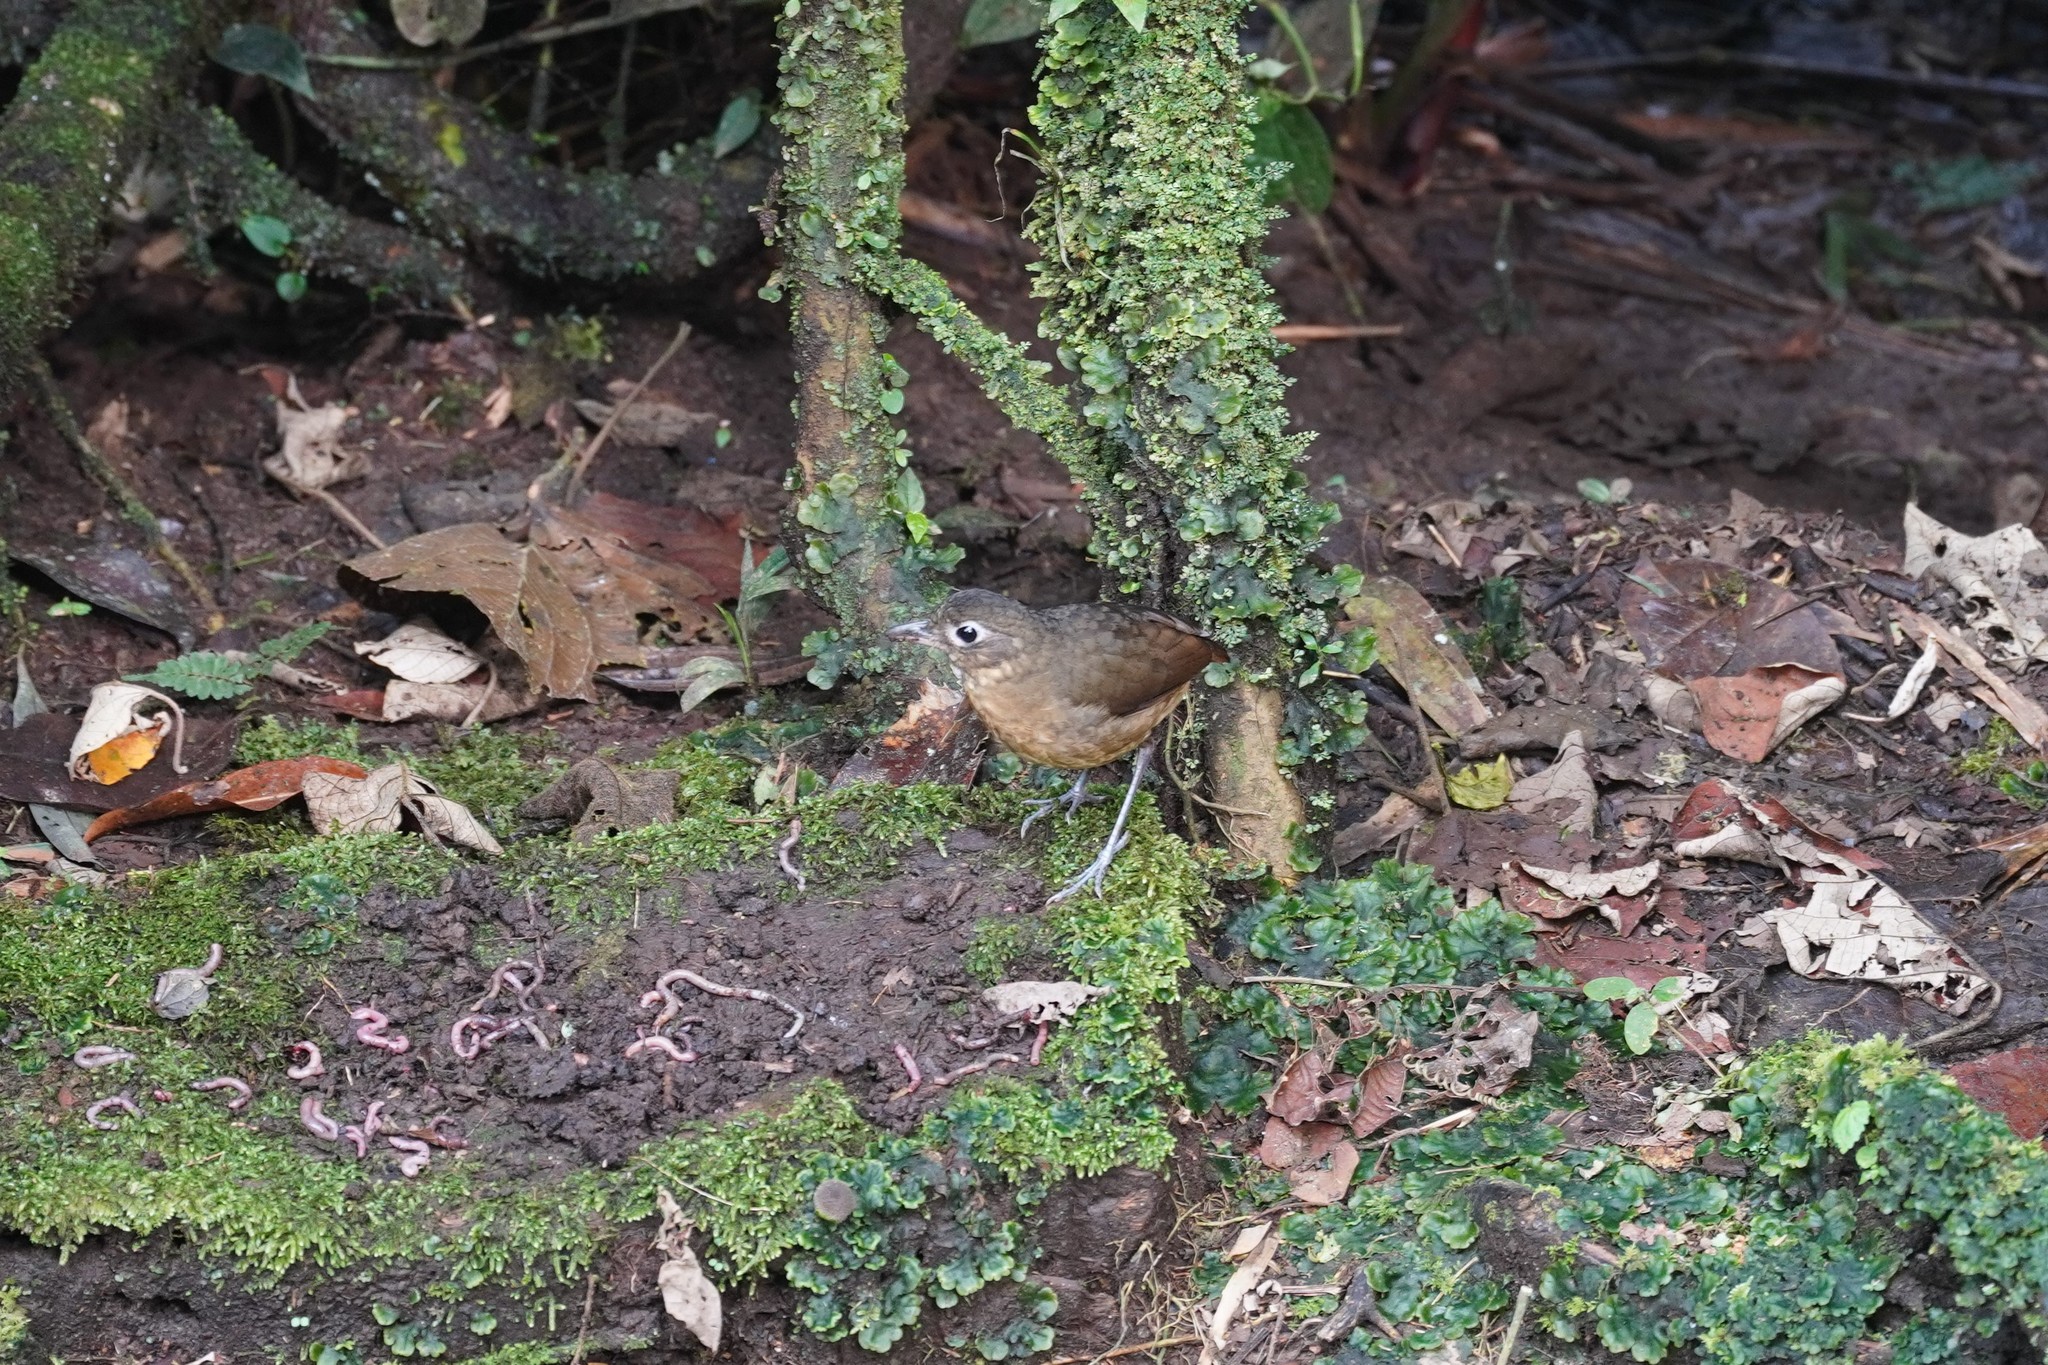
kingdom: Animalia
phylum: Chordata
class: Aves
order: Passeriformes
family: Grallariidae
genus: Grallaria
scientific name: Grallaria haplonota
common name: Plain-backed antpitta
